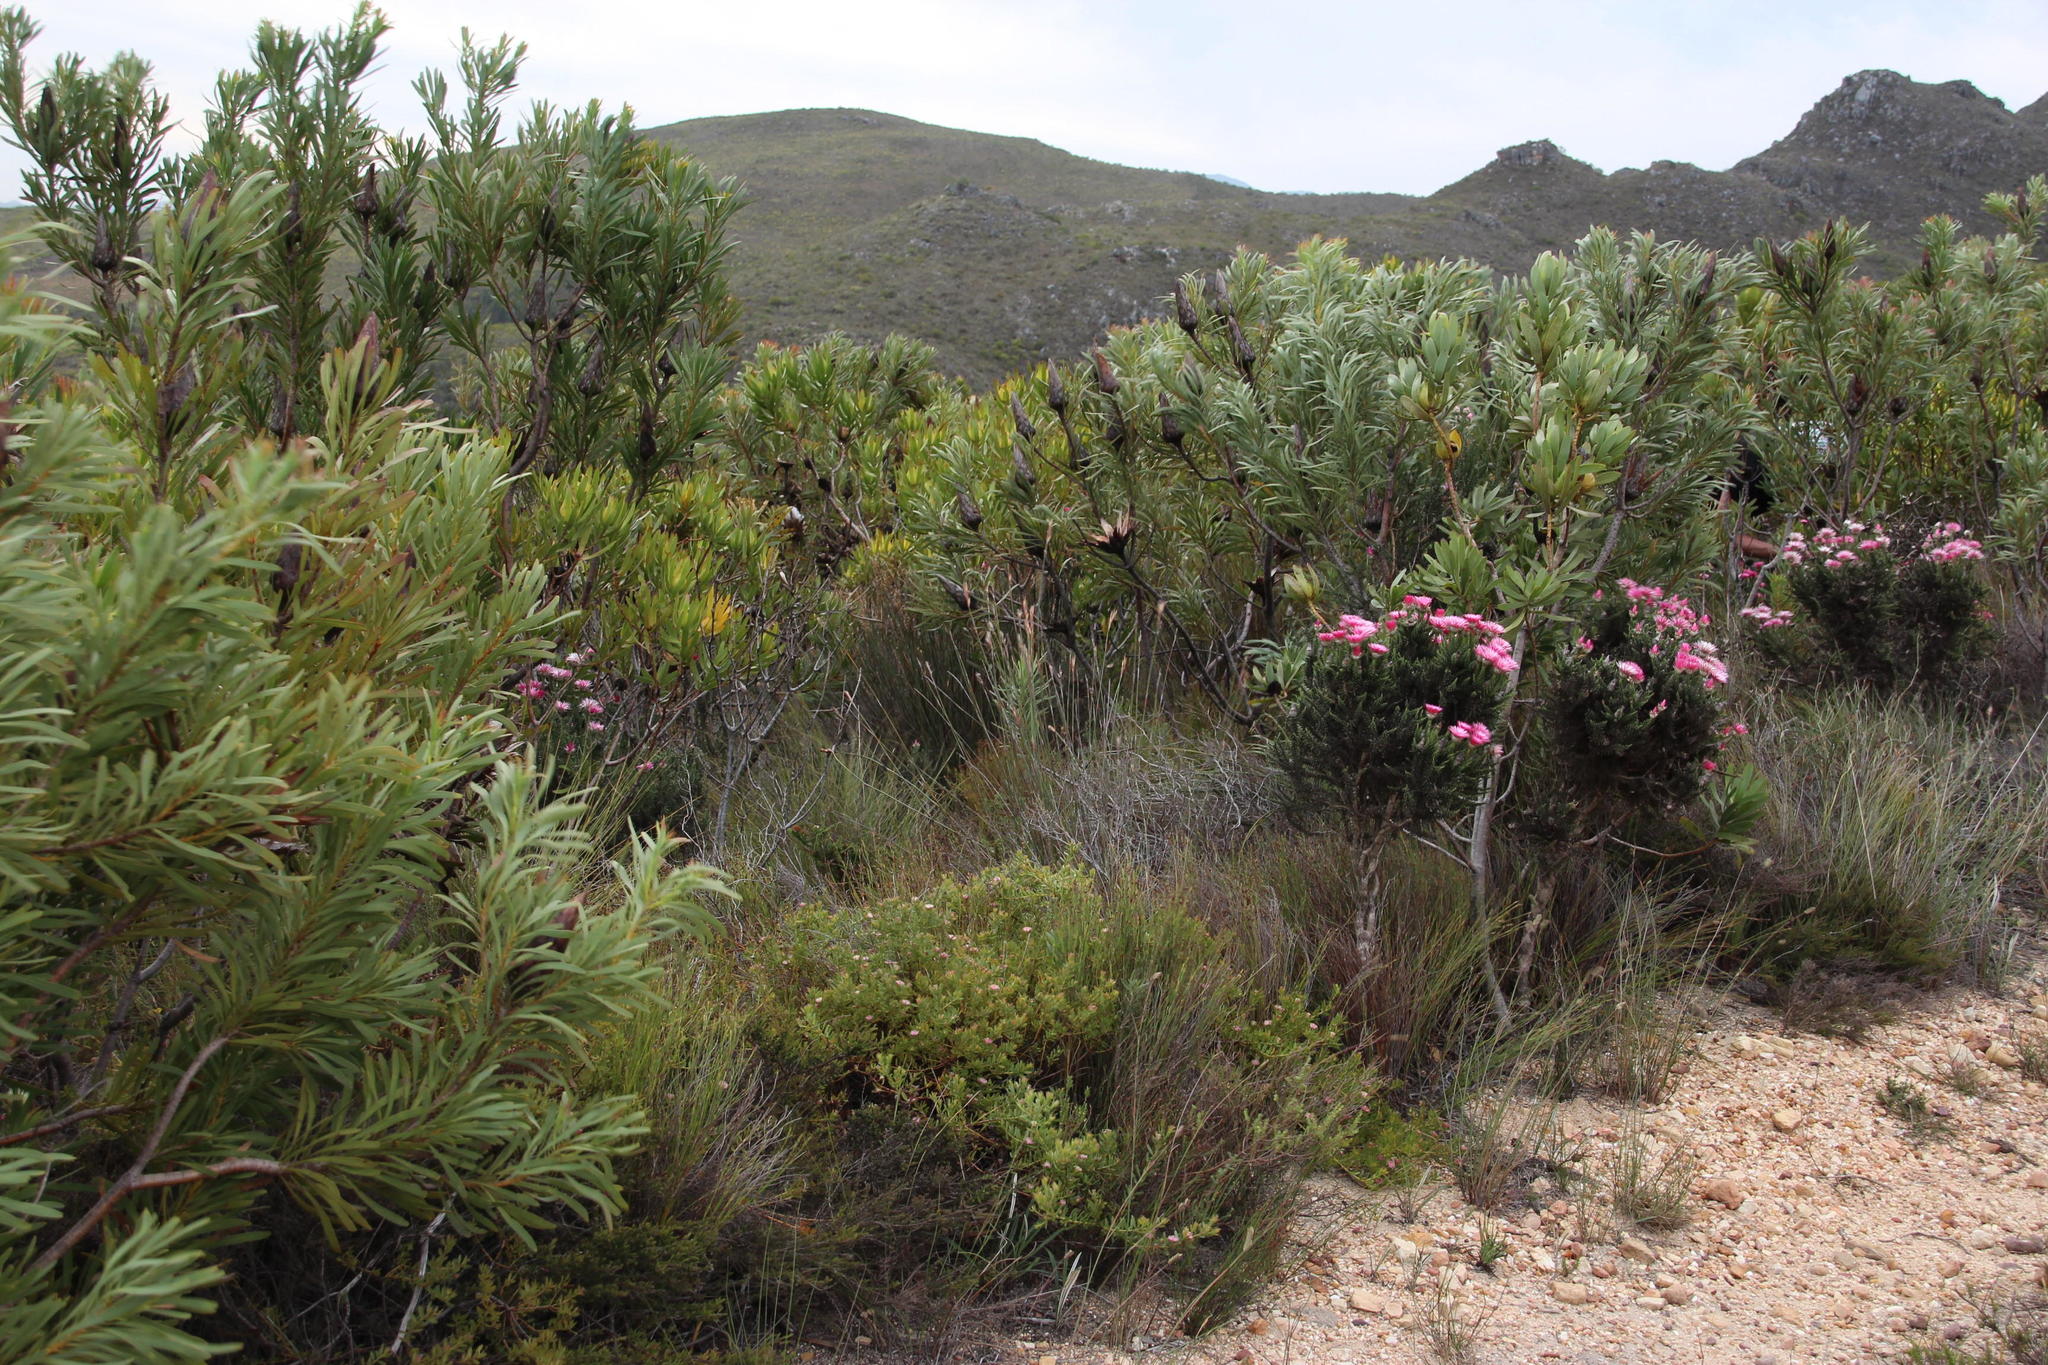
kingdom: Plantae
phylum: Tracheophyta
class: Magnoliopsida
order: Proteales
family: Proteaceae
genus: Diastella
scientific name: Diastella divaricata
